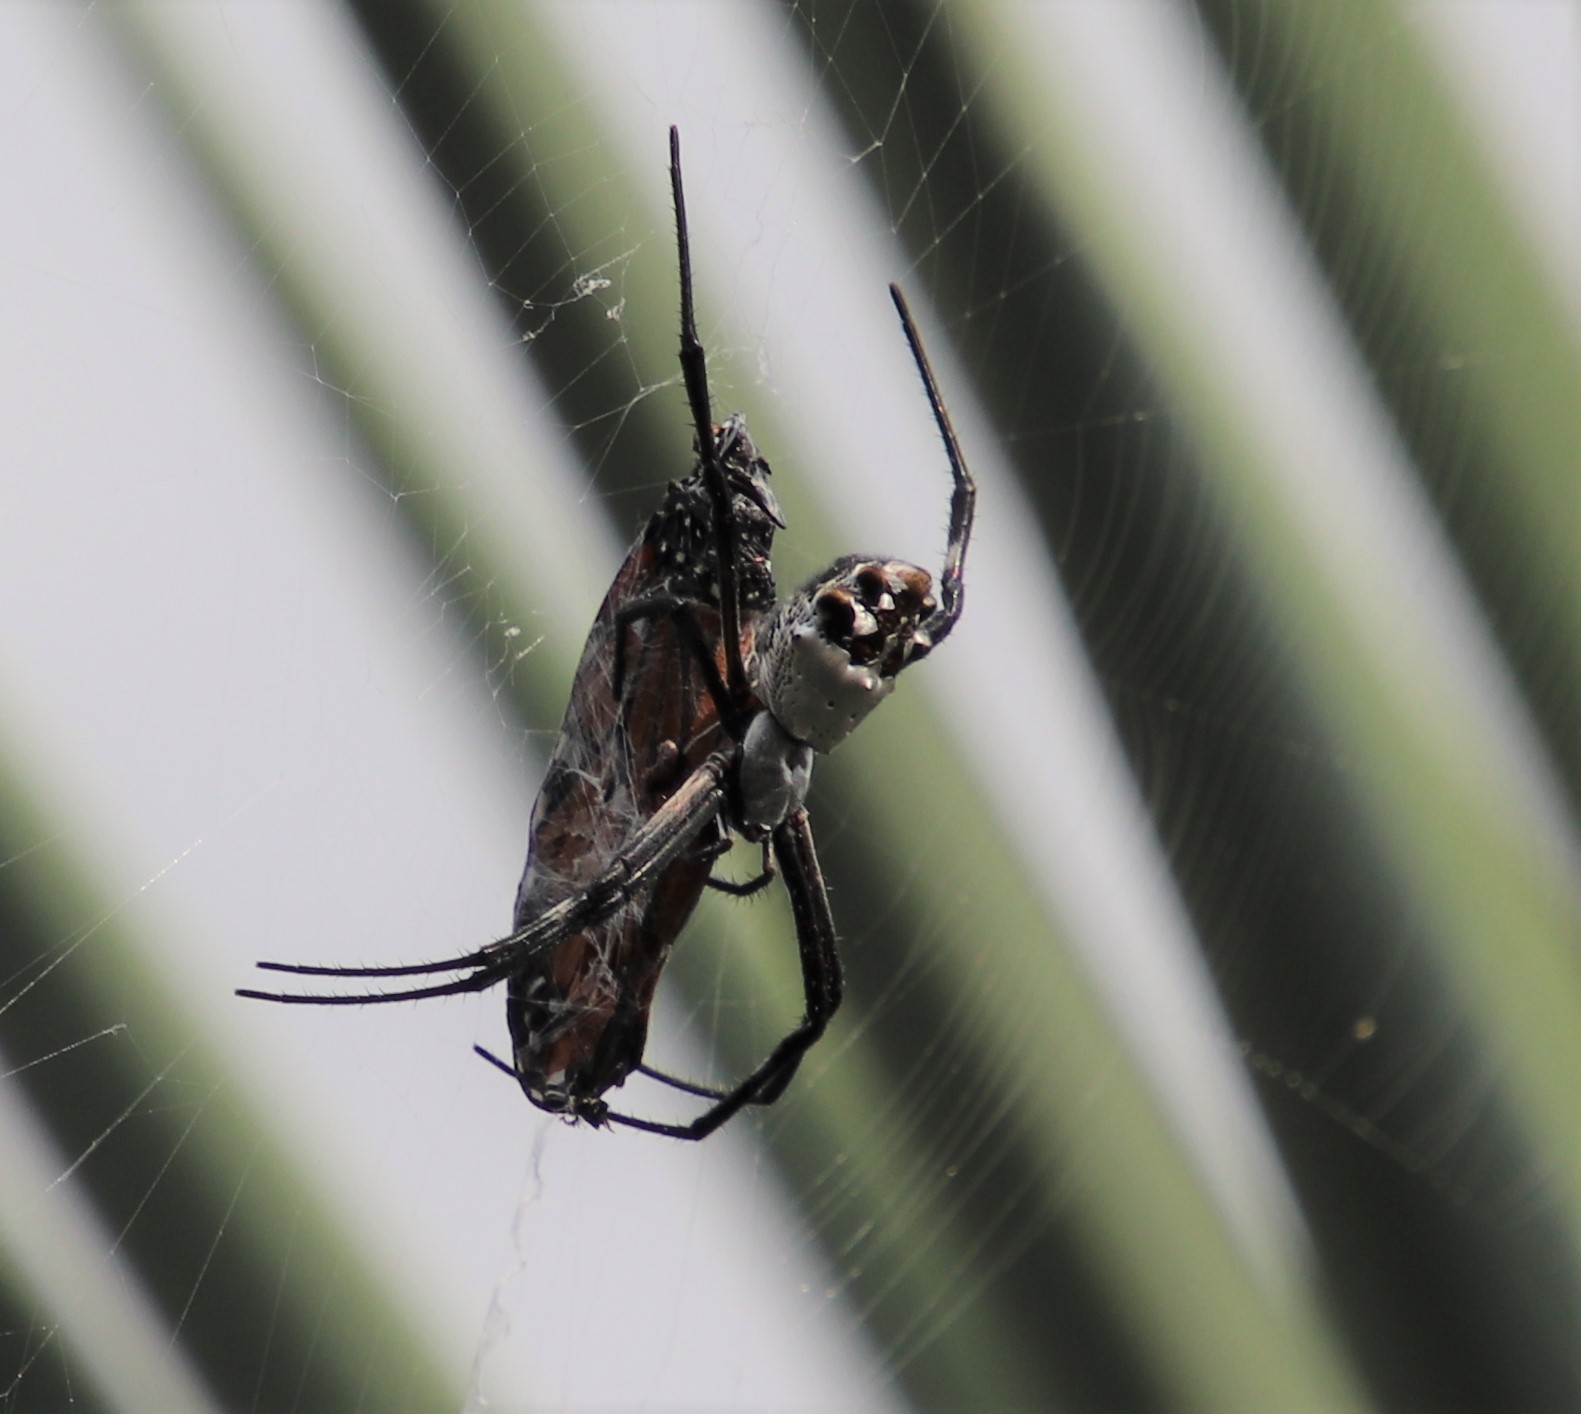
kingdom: Animalia
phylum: Arthropoda
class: Arachnida
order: Araneae
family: Araneidae
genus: Argiope
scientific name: Argiope argentata
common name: Orb weavers
